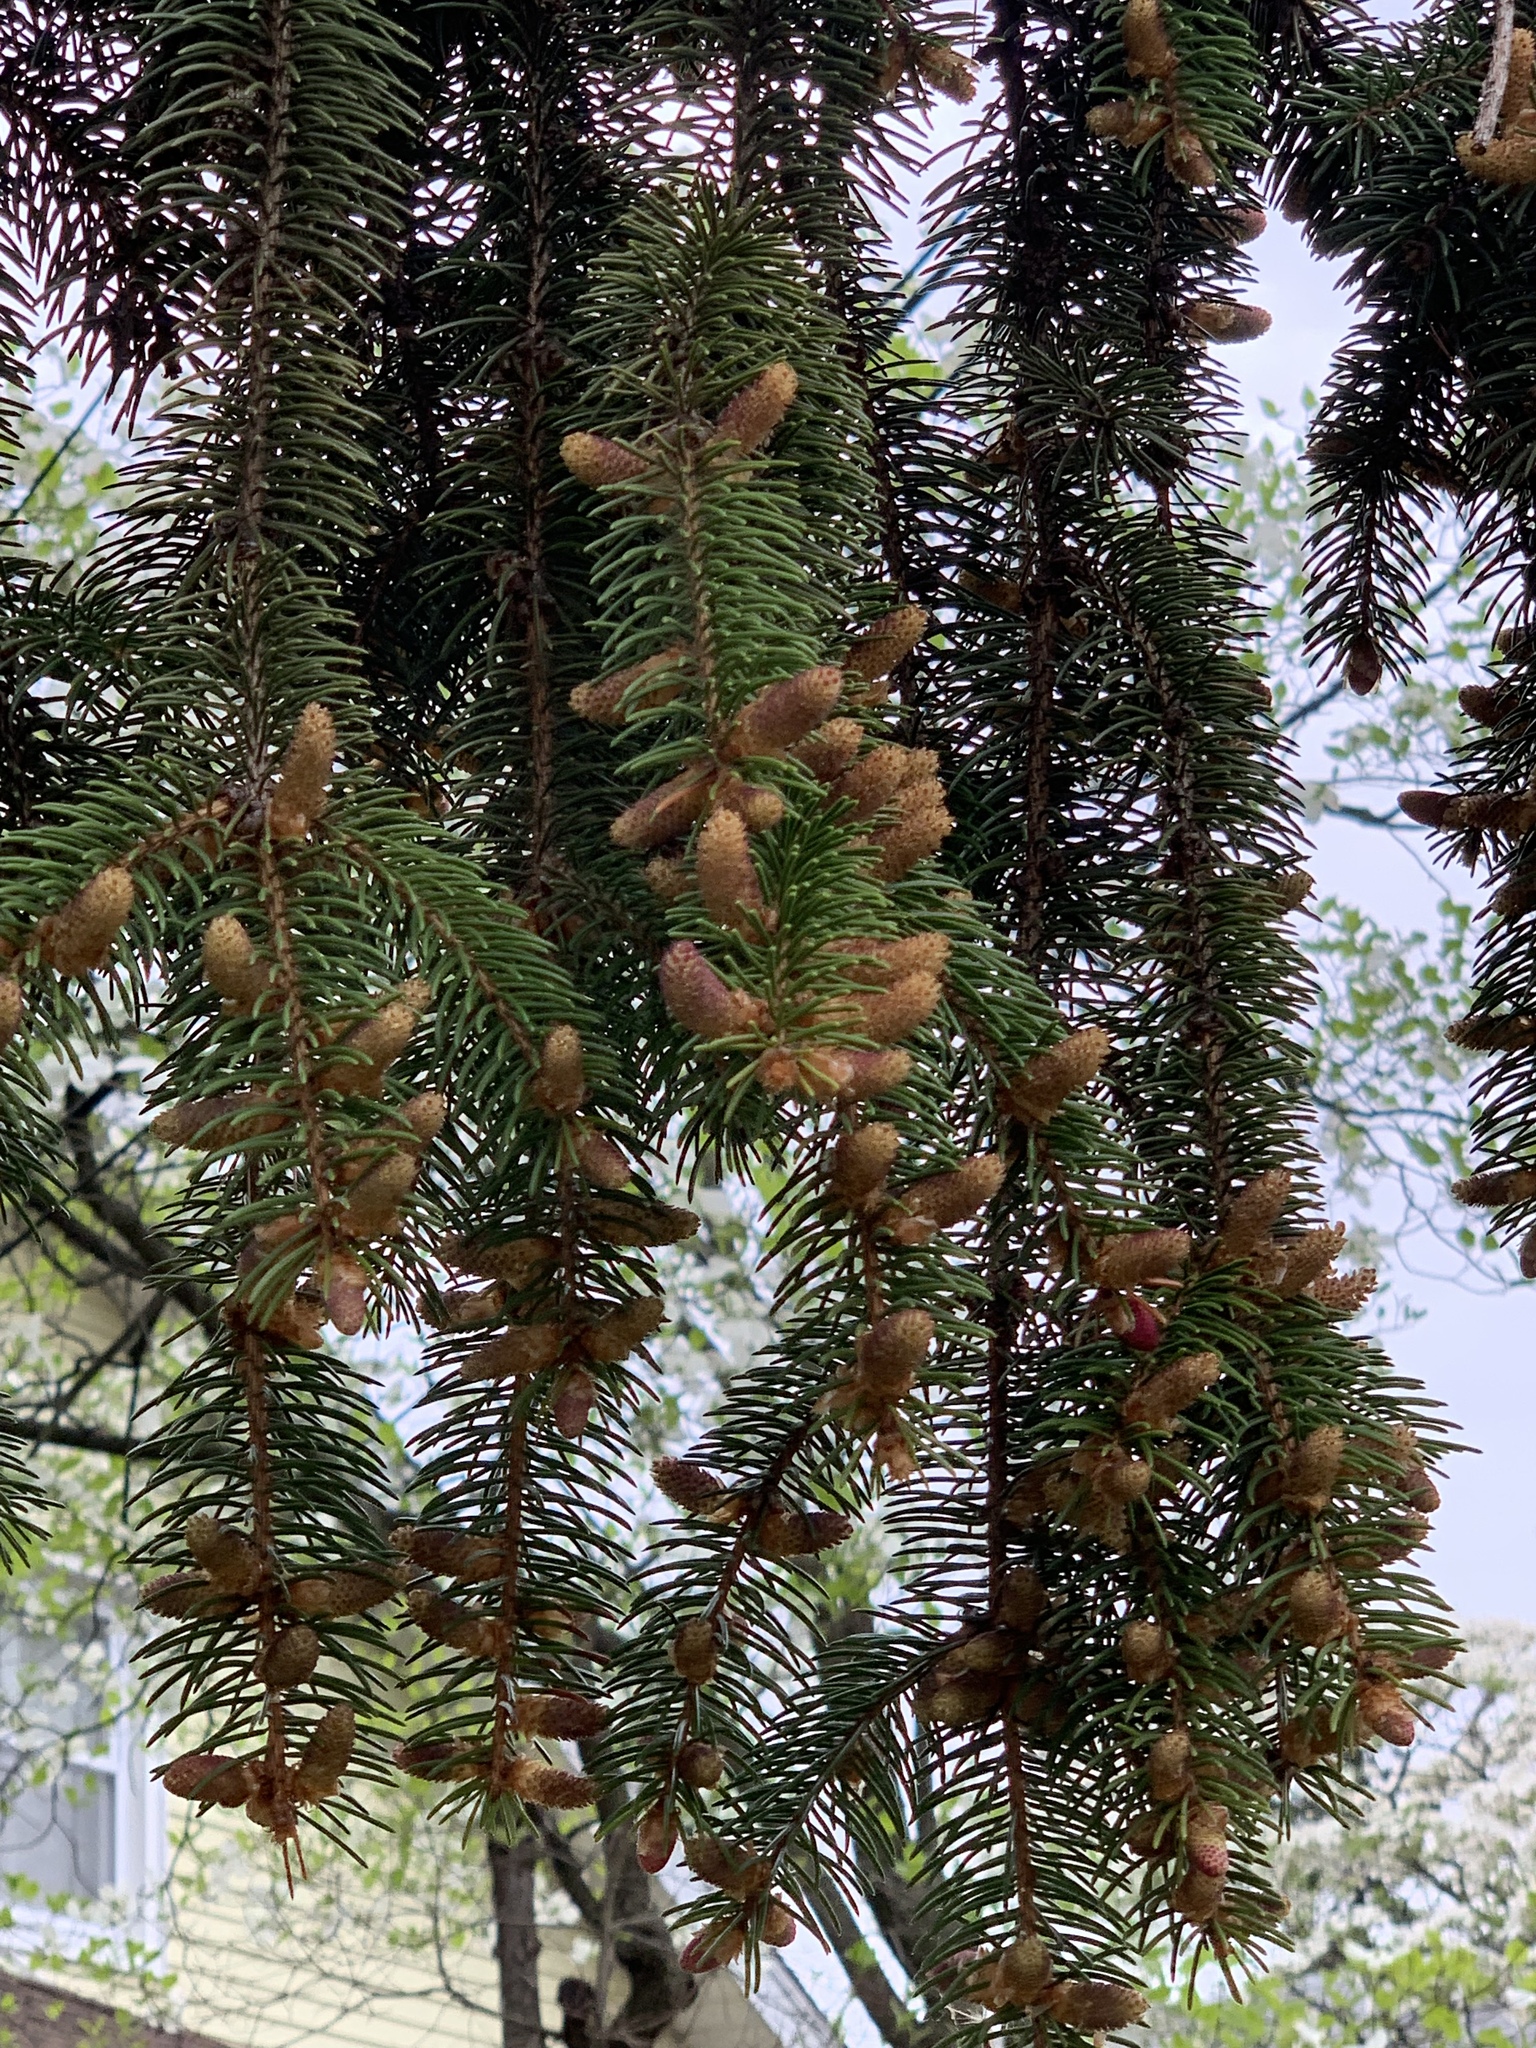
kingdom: Plantae
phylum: Tracheophyta
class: Pinopsida
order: Pinales
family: Pinaceae
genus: Picea
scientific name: Picea abies
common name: Norway spruce
